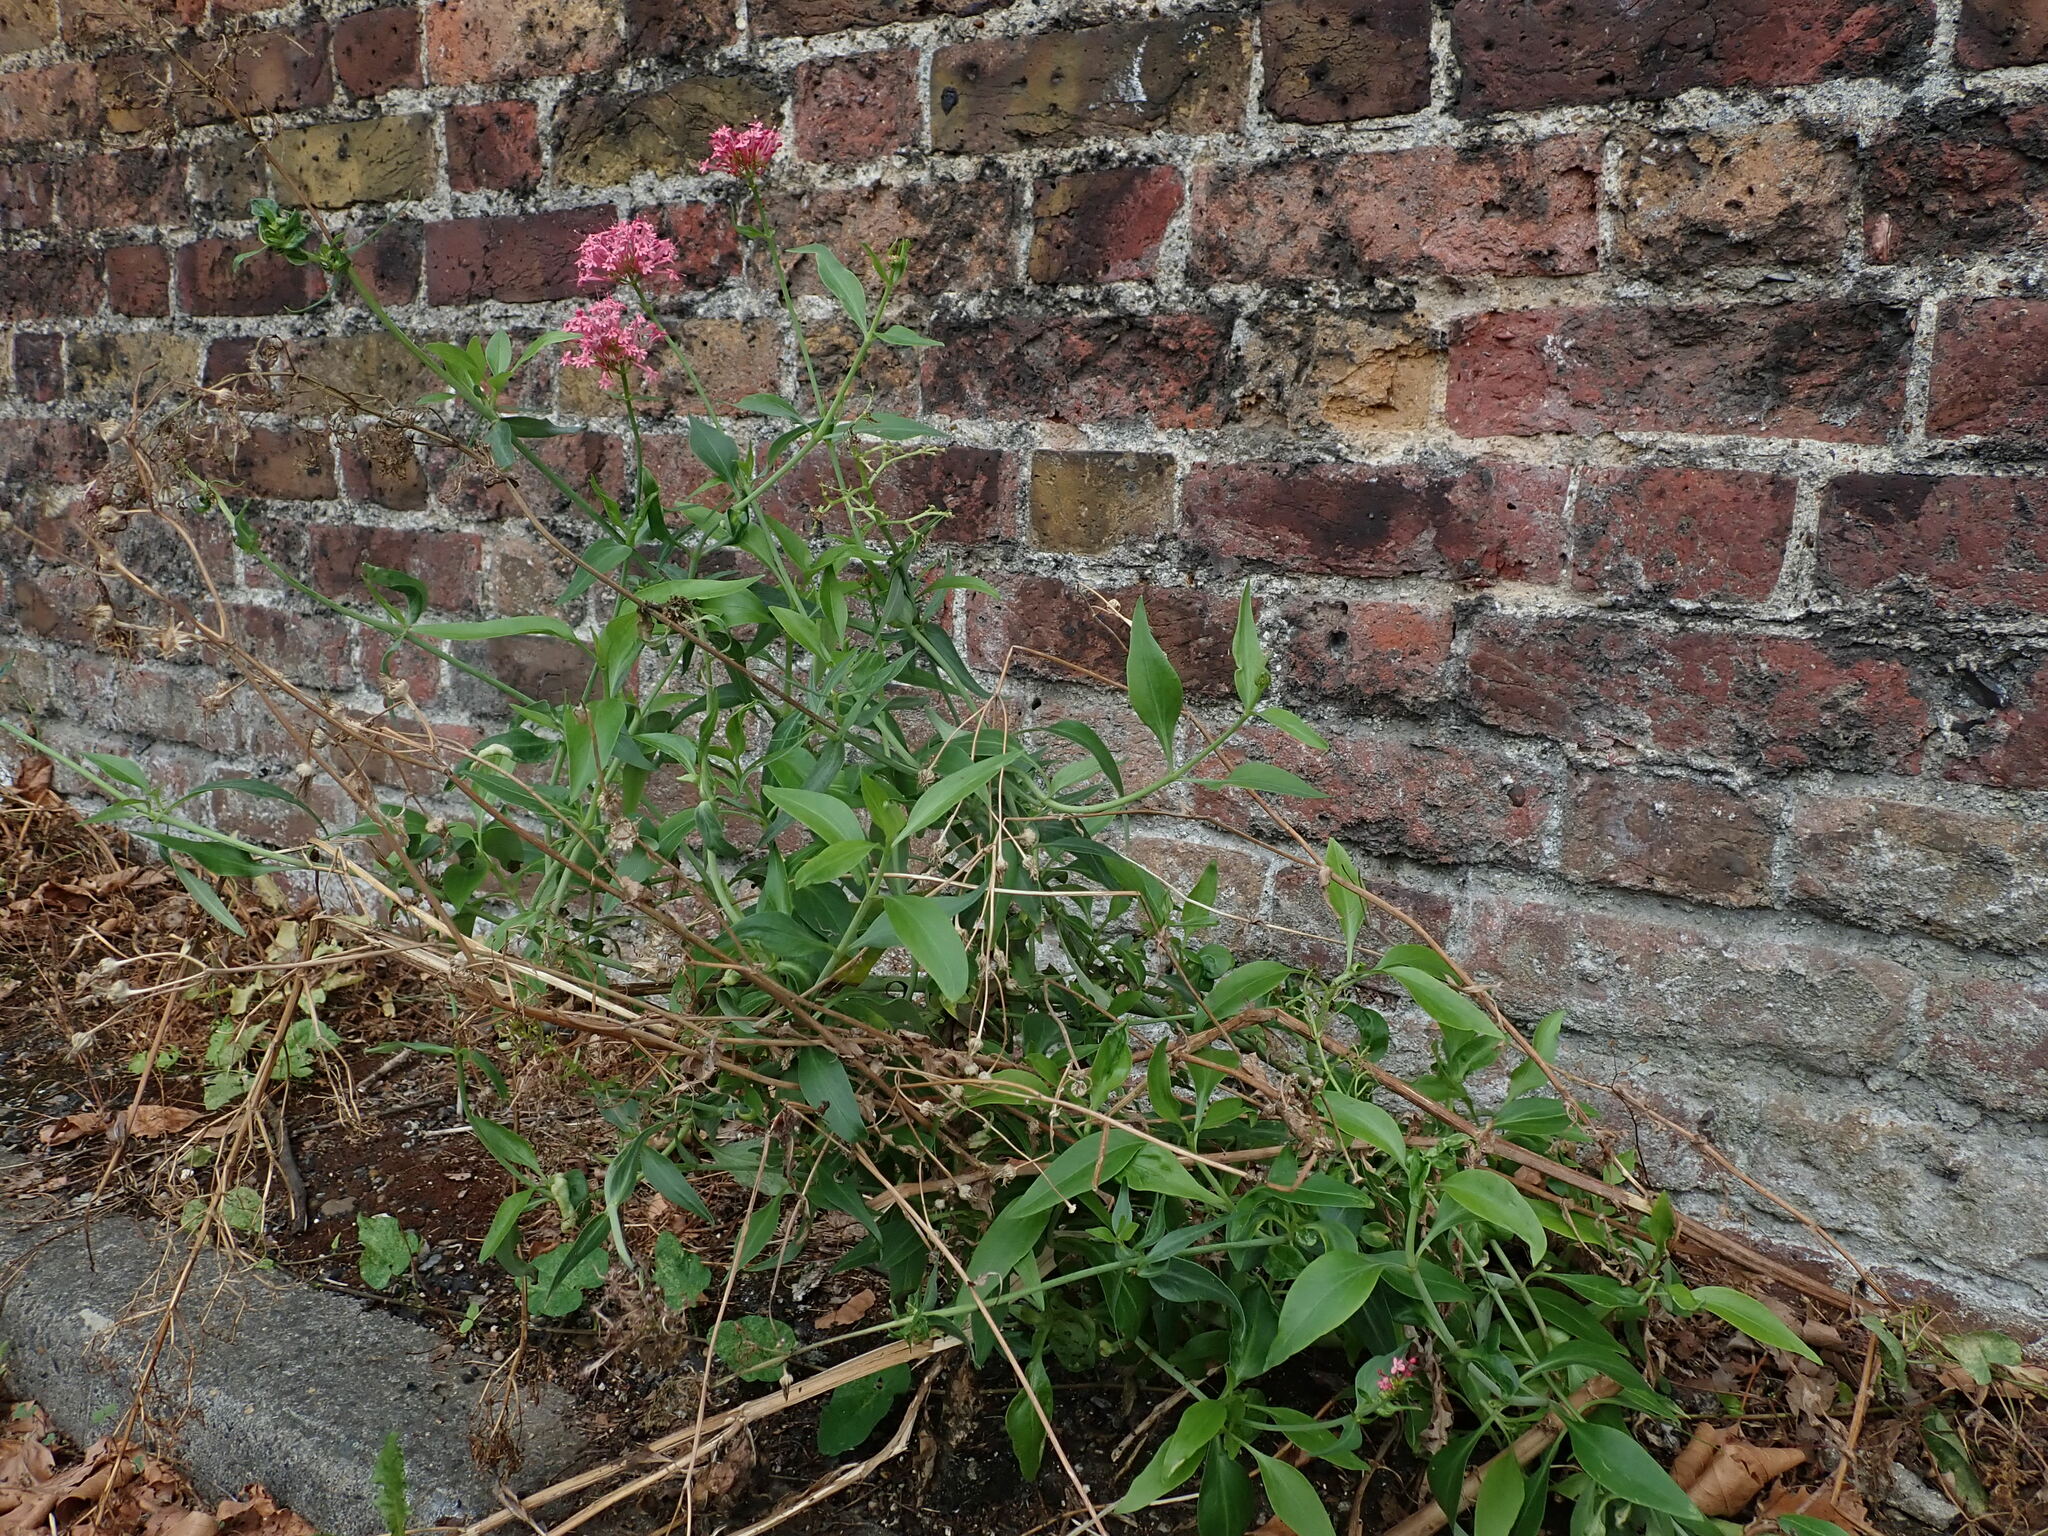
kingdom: Plantae
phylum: Tracheophyta
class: Magnoliopsida
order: Dipsacales
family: Caprifoliaceae
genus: Centranthus
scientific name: Centranthus ruber
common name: Red valerian
